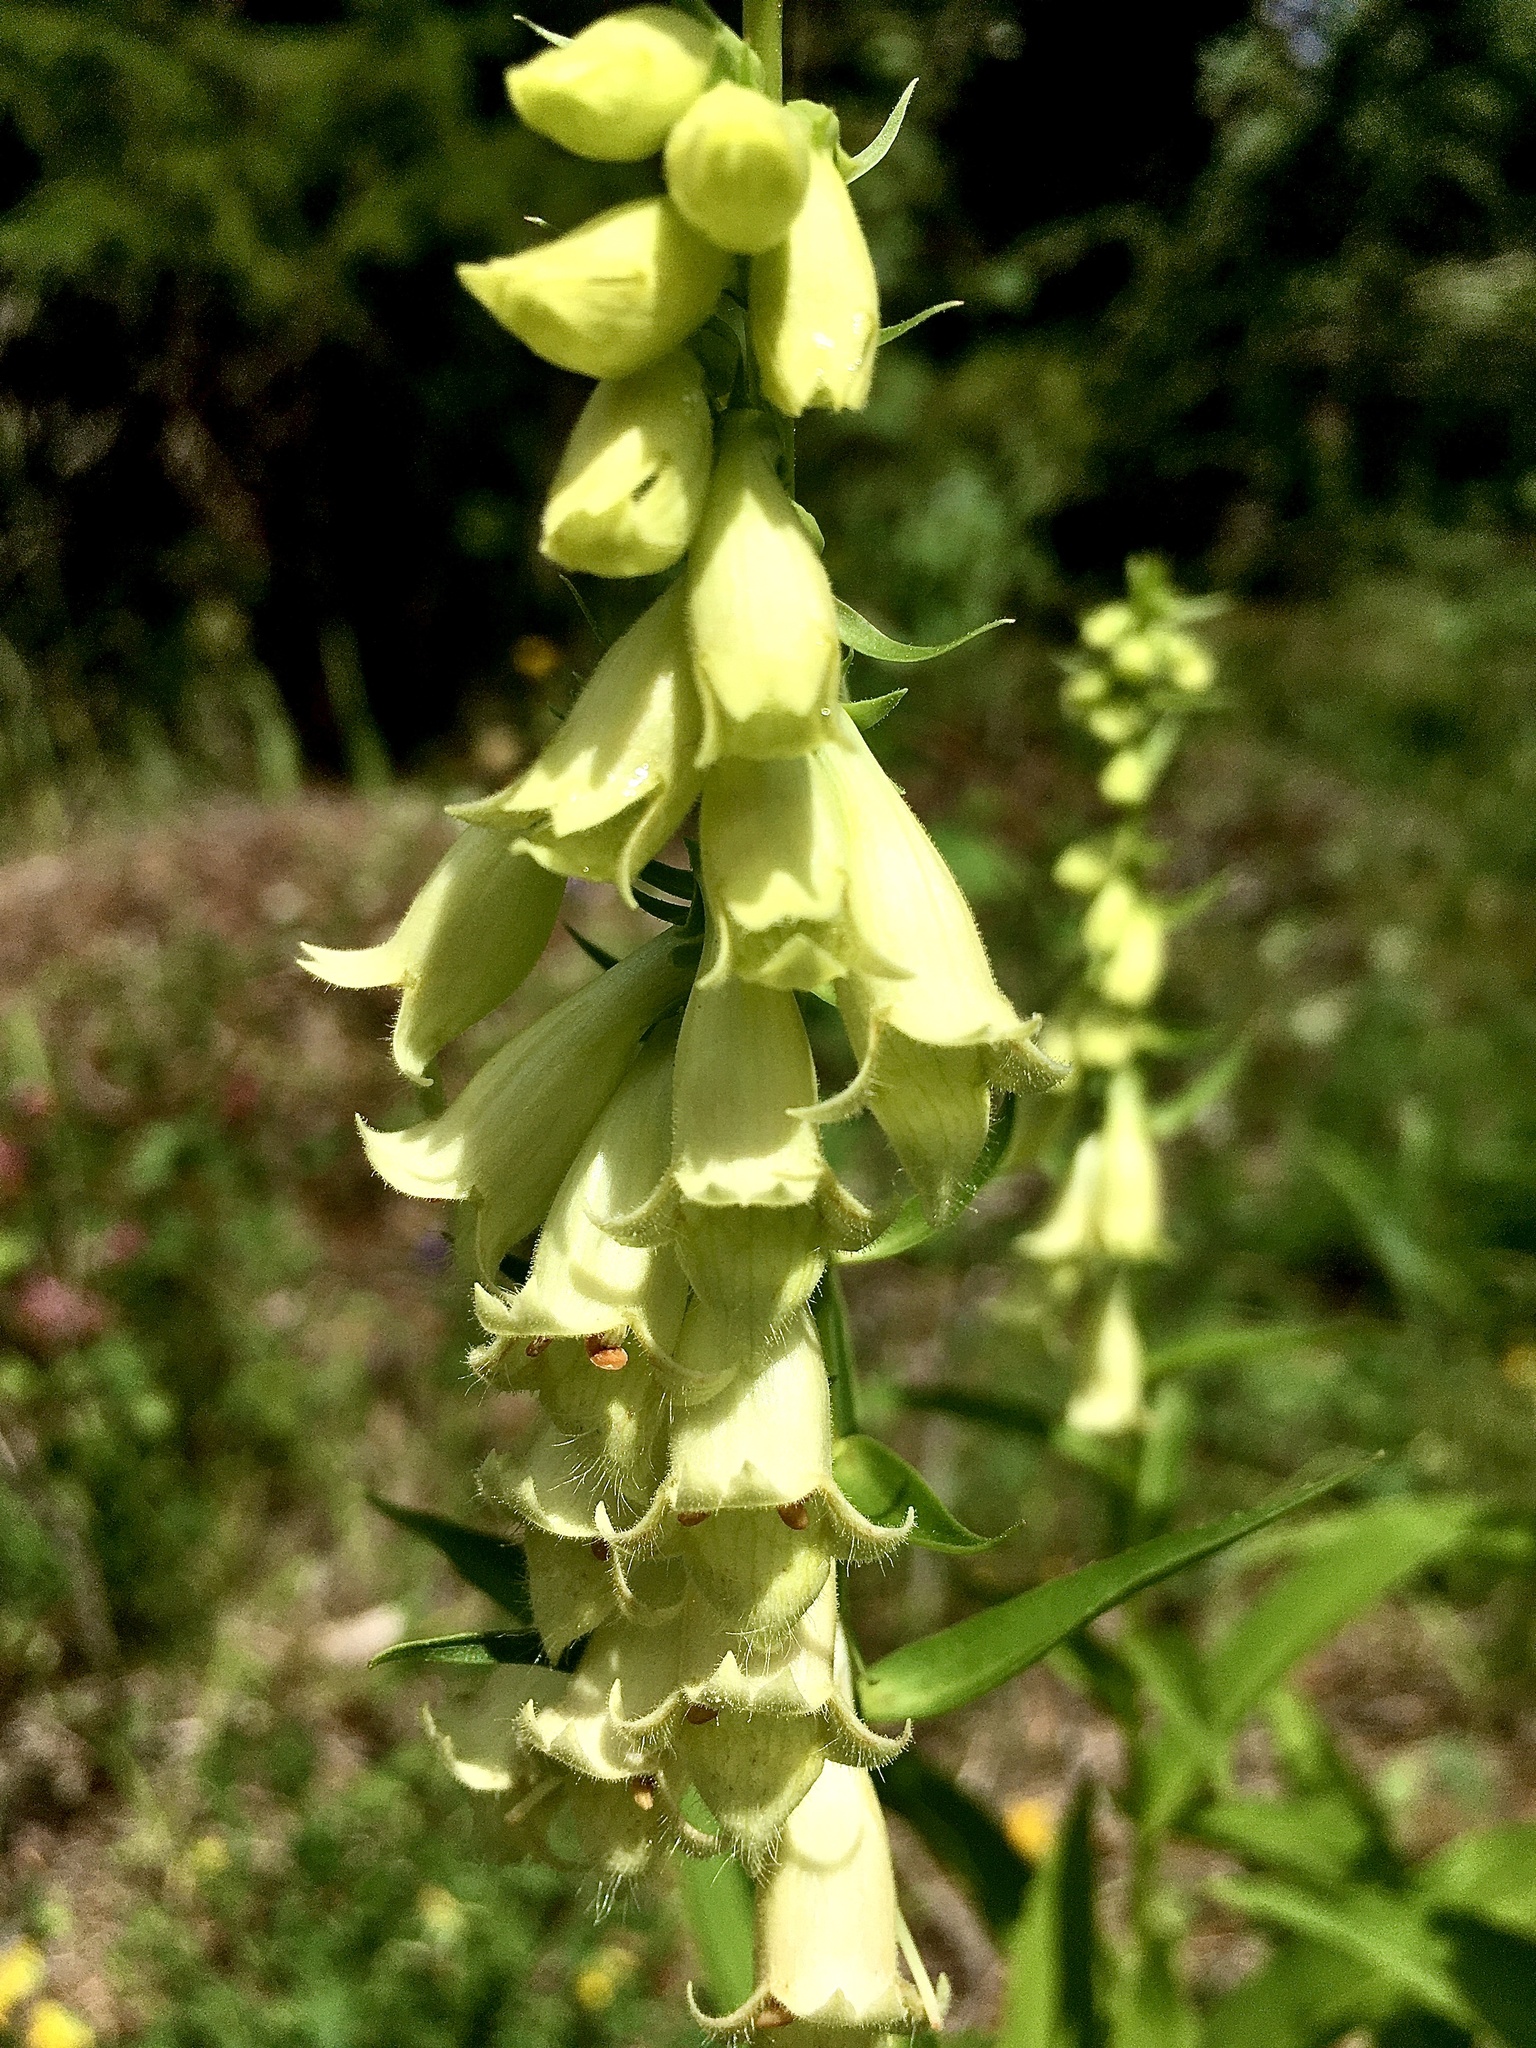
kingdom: Plantae
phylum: Tracheophyta
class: Magnoliopsida
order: Lamiales
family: Plantaginaceae
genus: Digitalis
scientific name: Digitalis lutea
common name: Straw foxglove
